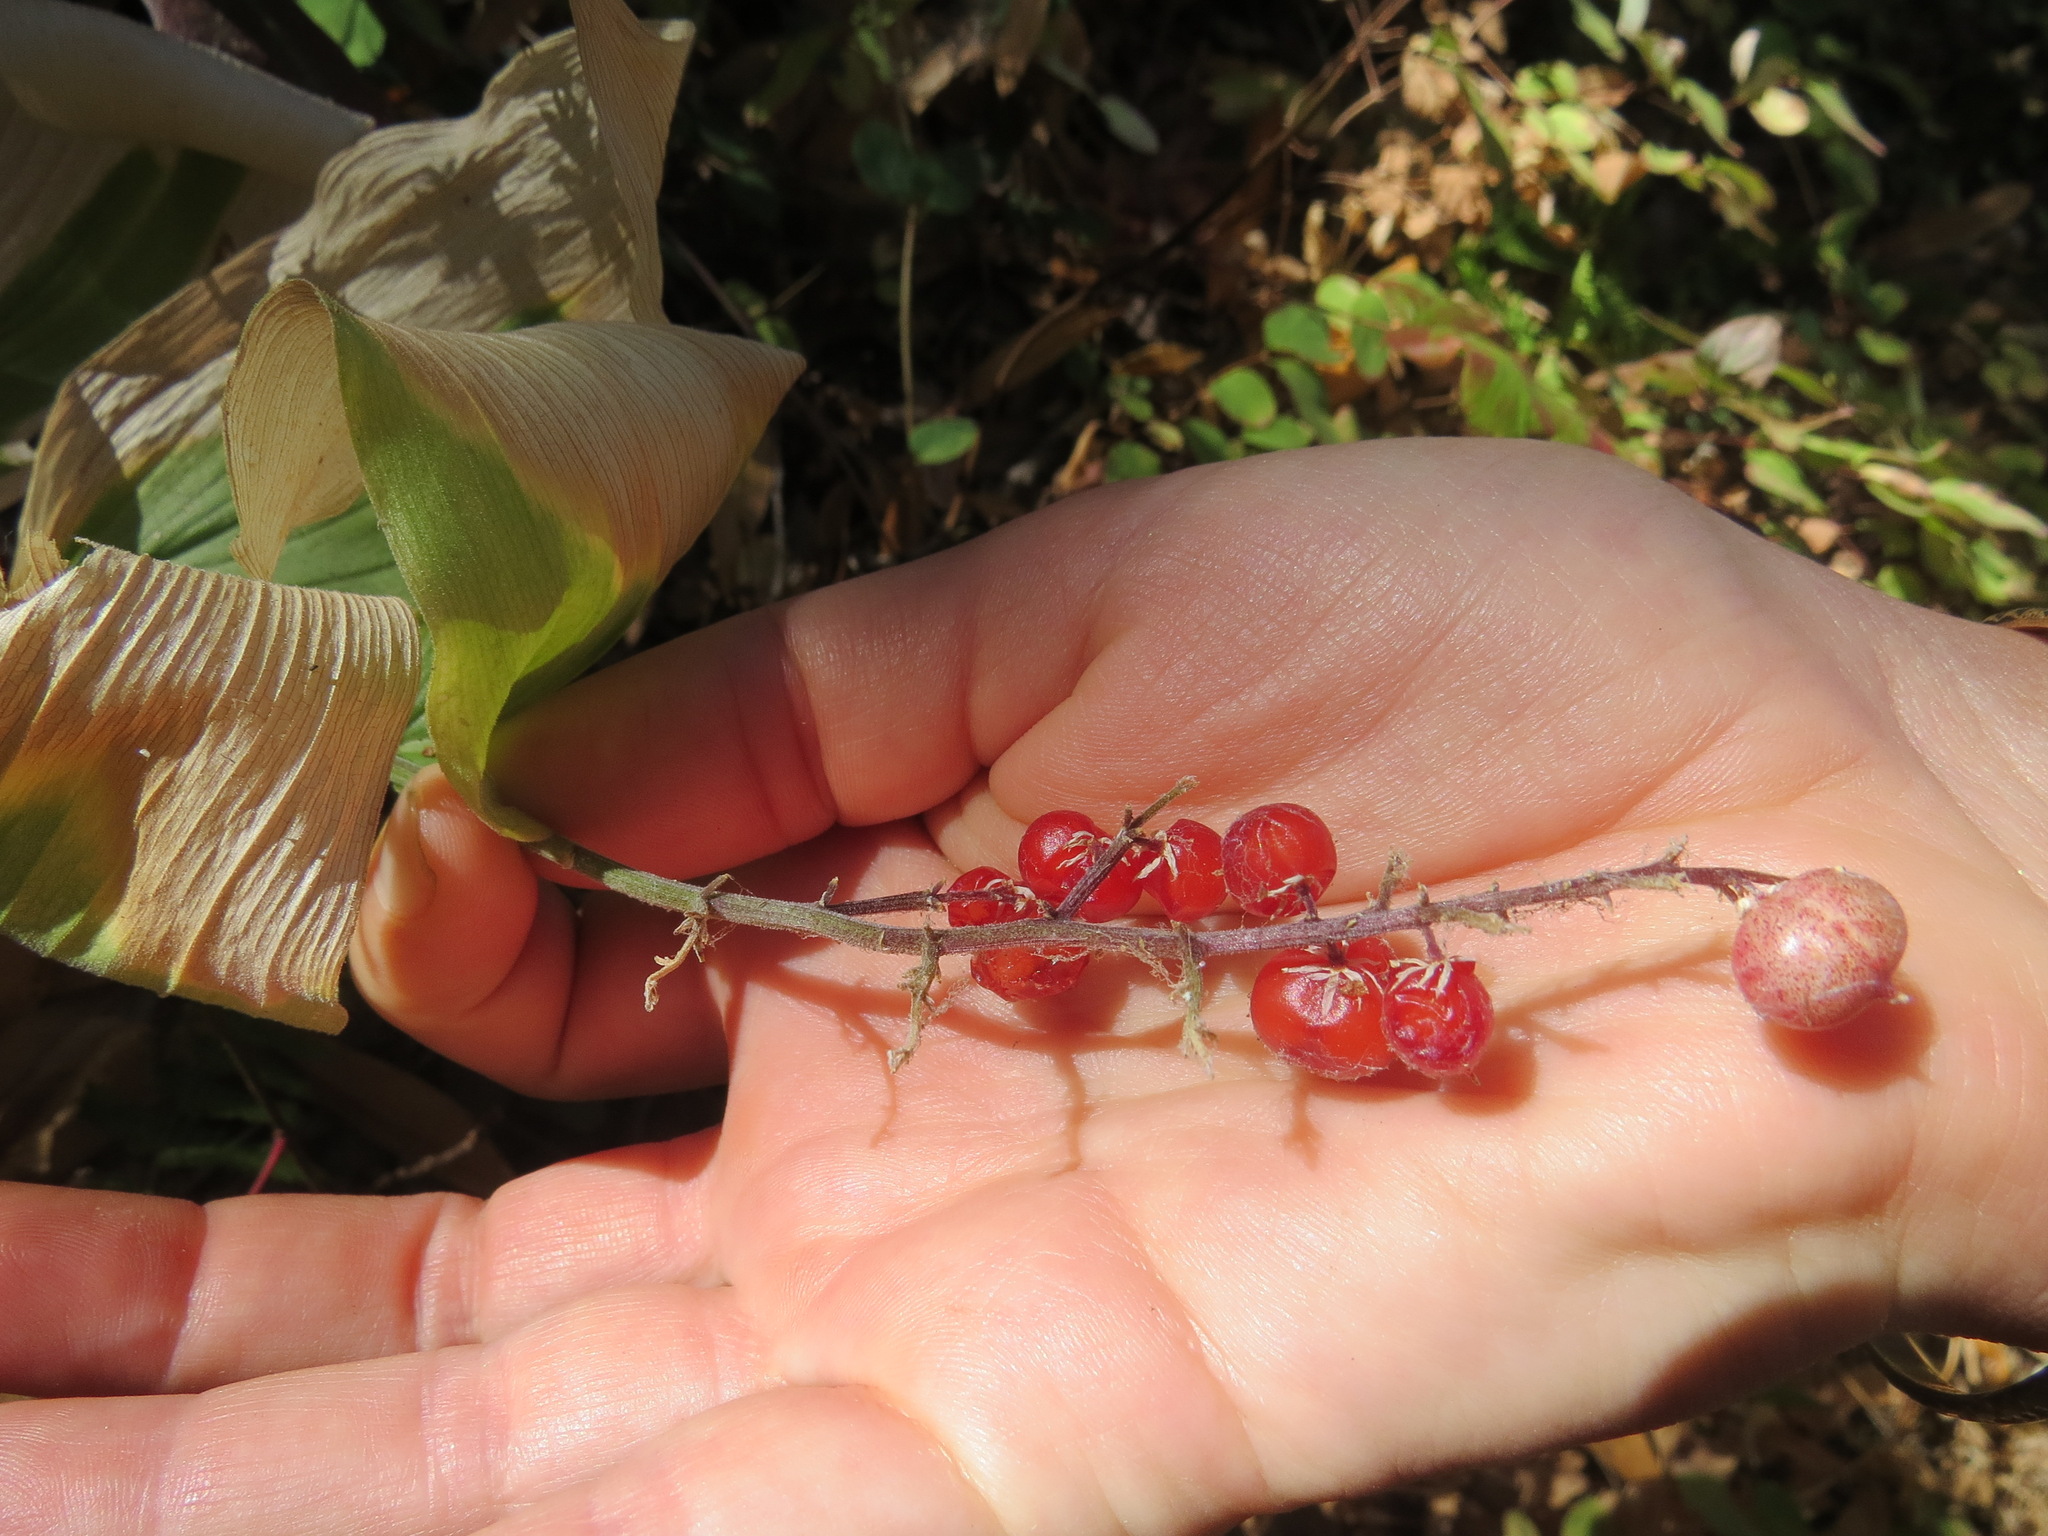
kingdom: Plantae
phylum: Tracheophyta
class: Liliopsida
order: Asparagales
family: Asparagaceae
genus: Maianthemum
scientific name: Maianthemum racemosum
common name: False spikenard
